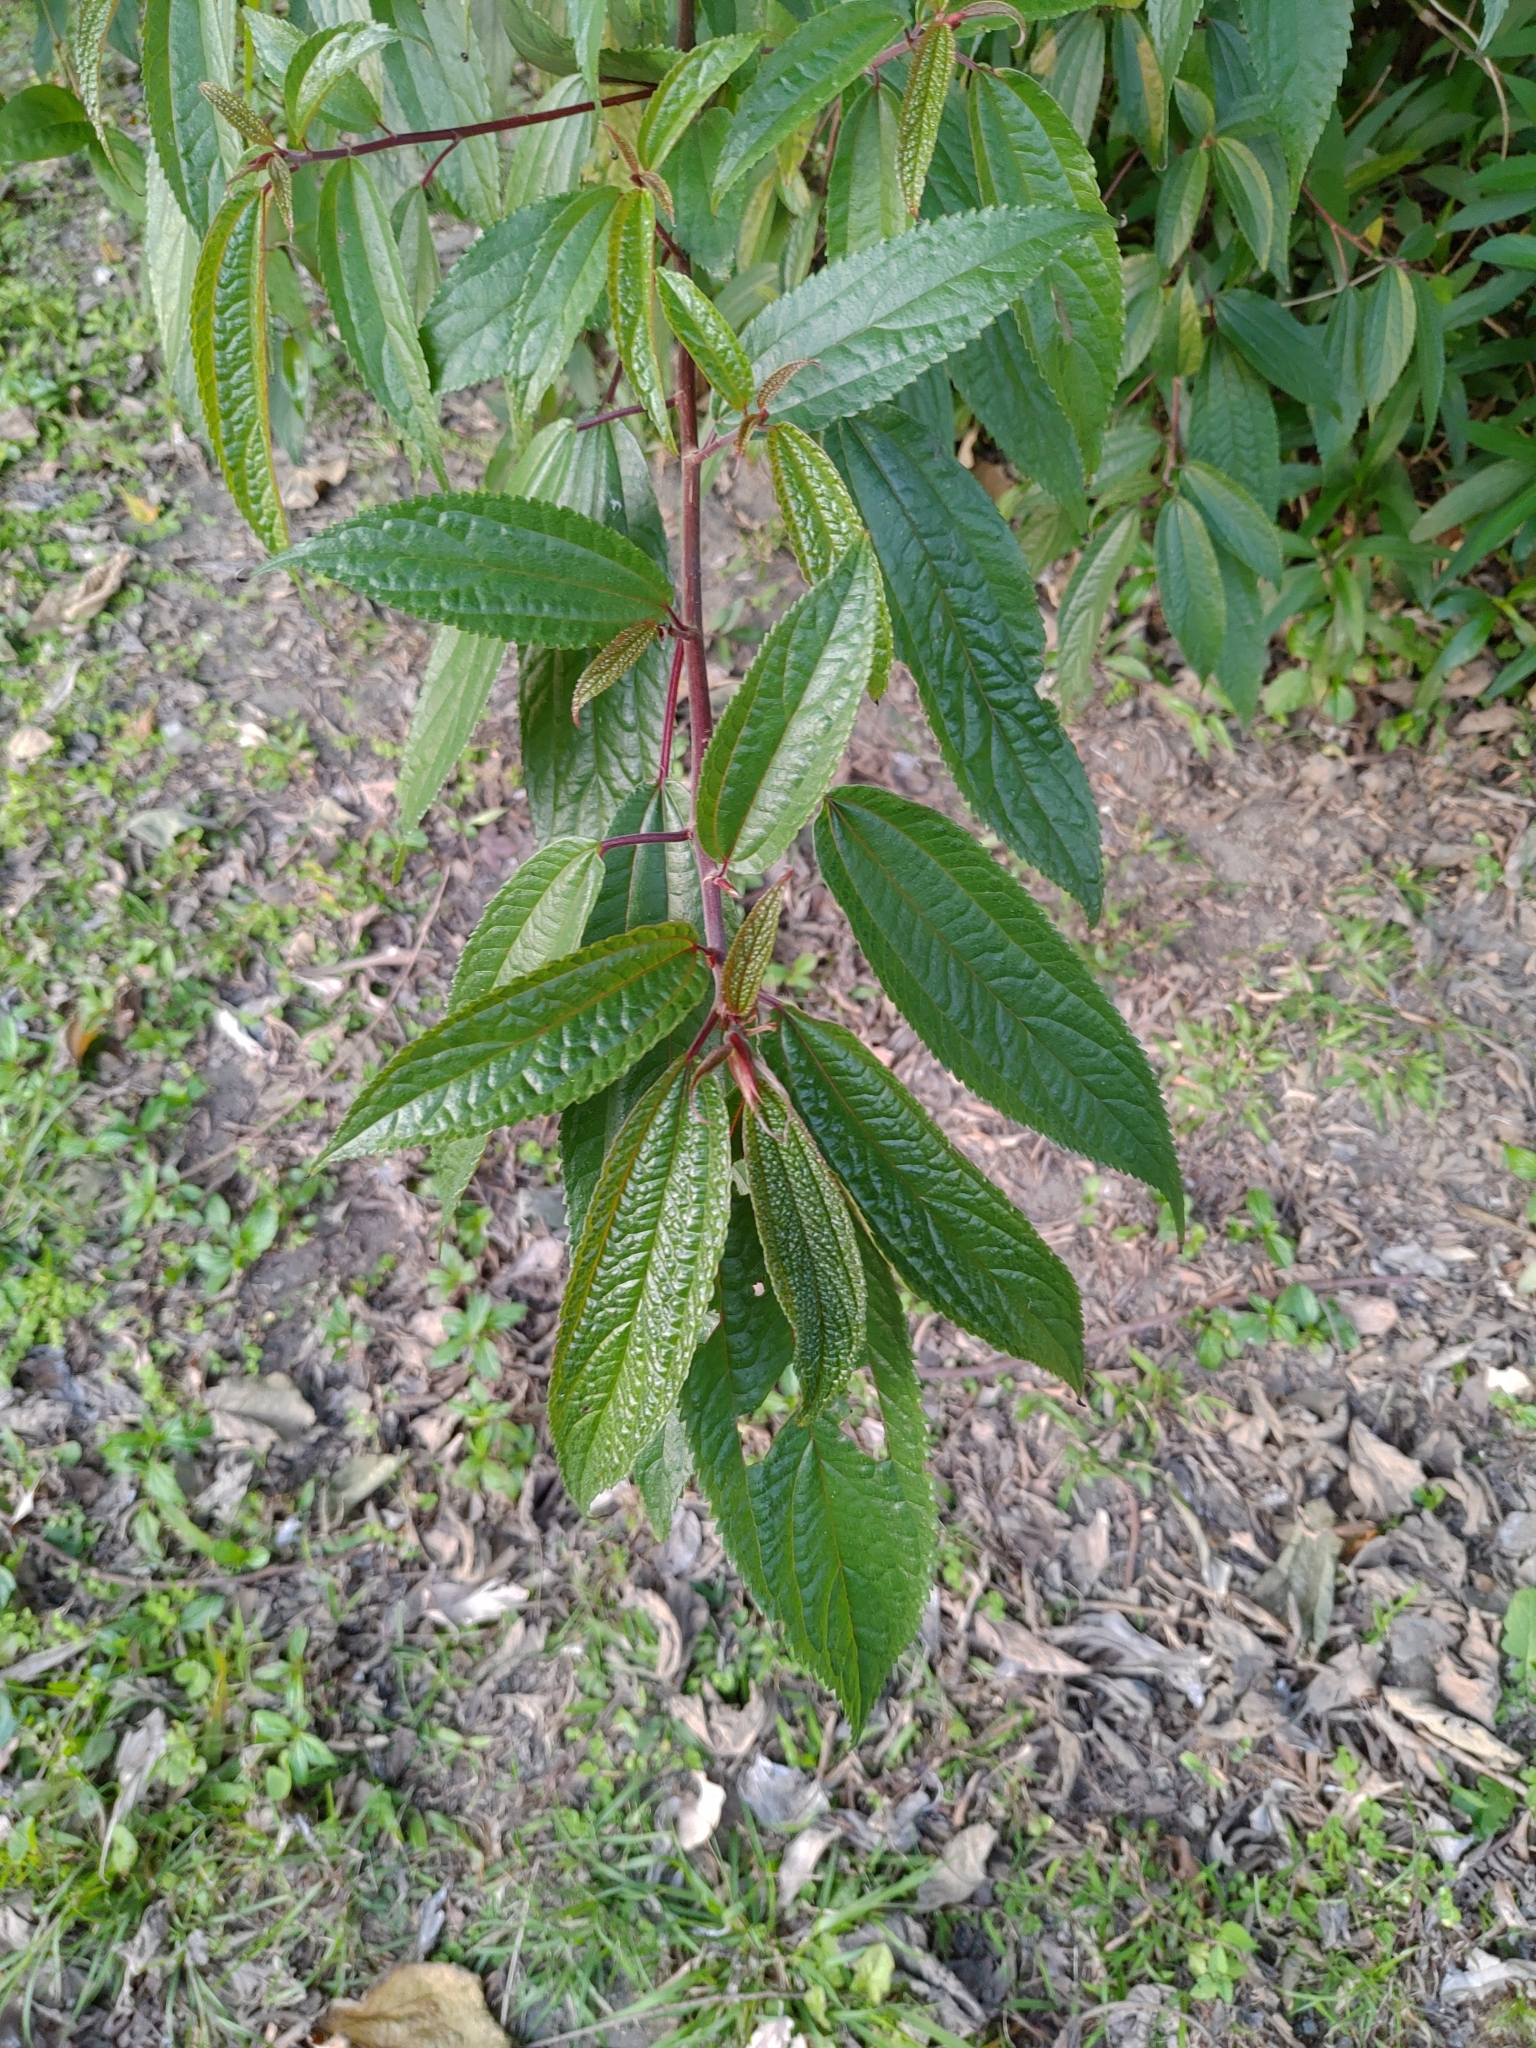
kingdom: Plantae
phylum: Tracheophyta
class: Magnoliopsida
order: Rosales
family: Urticaceae
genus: Oreocnide
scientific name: Oreocnide pedunculata
